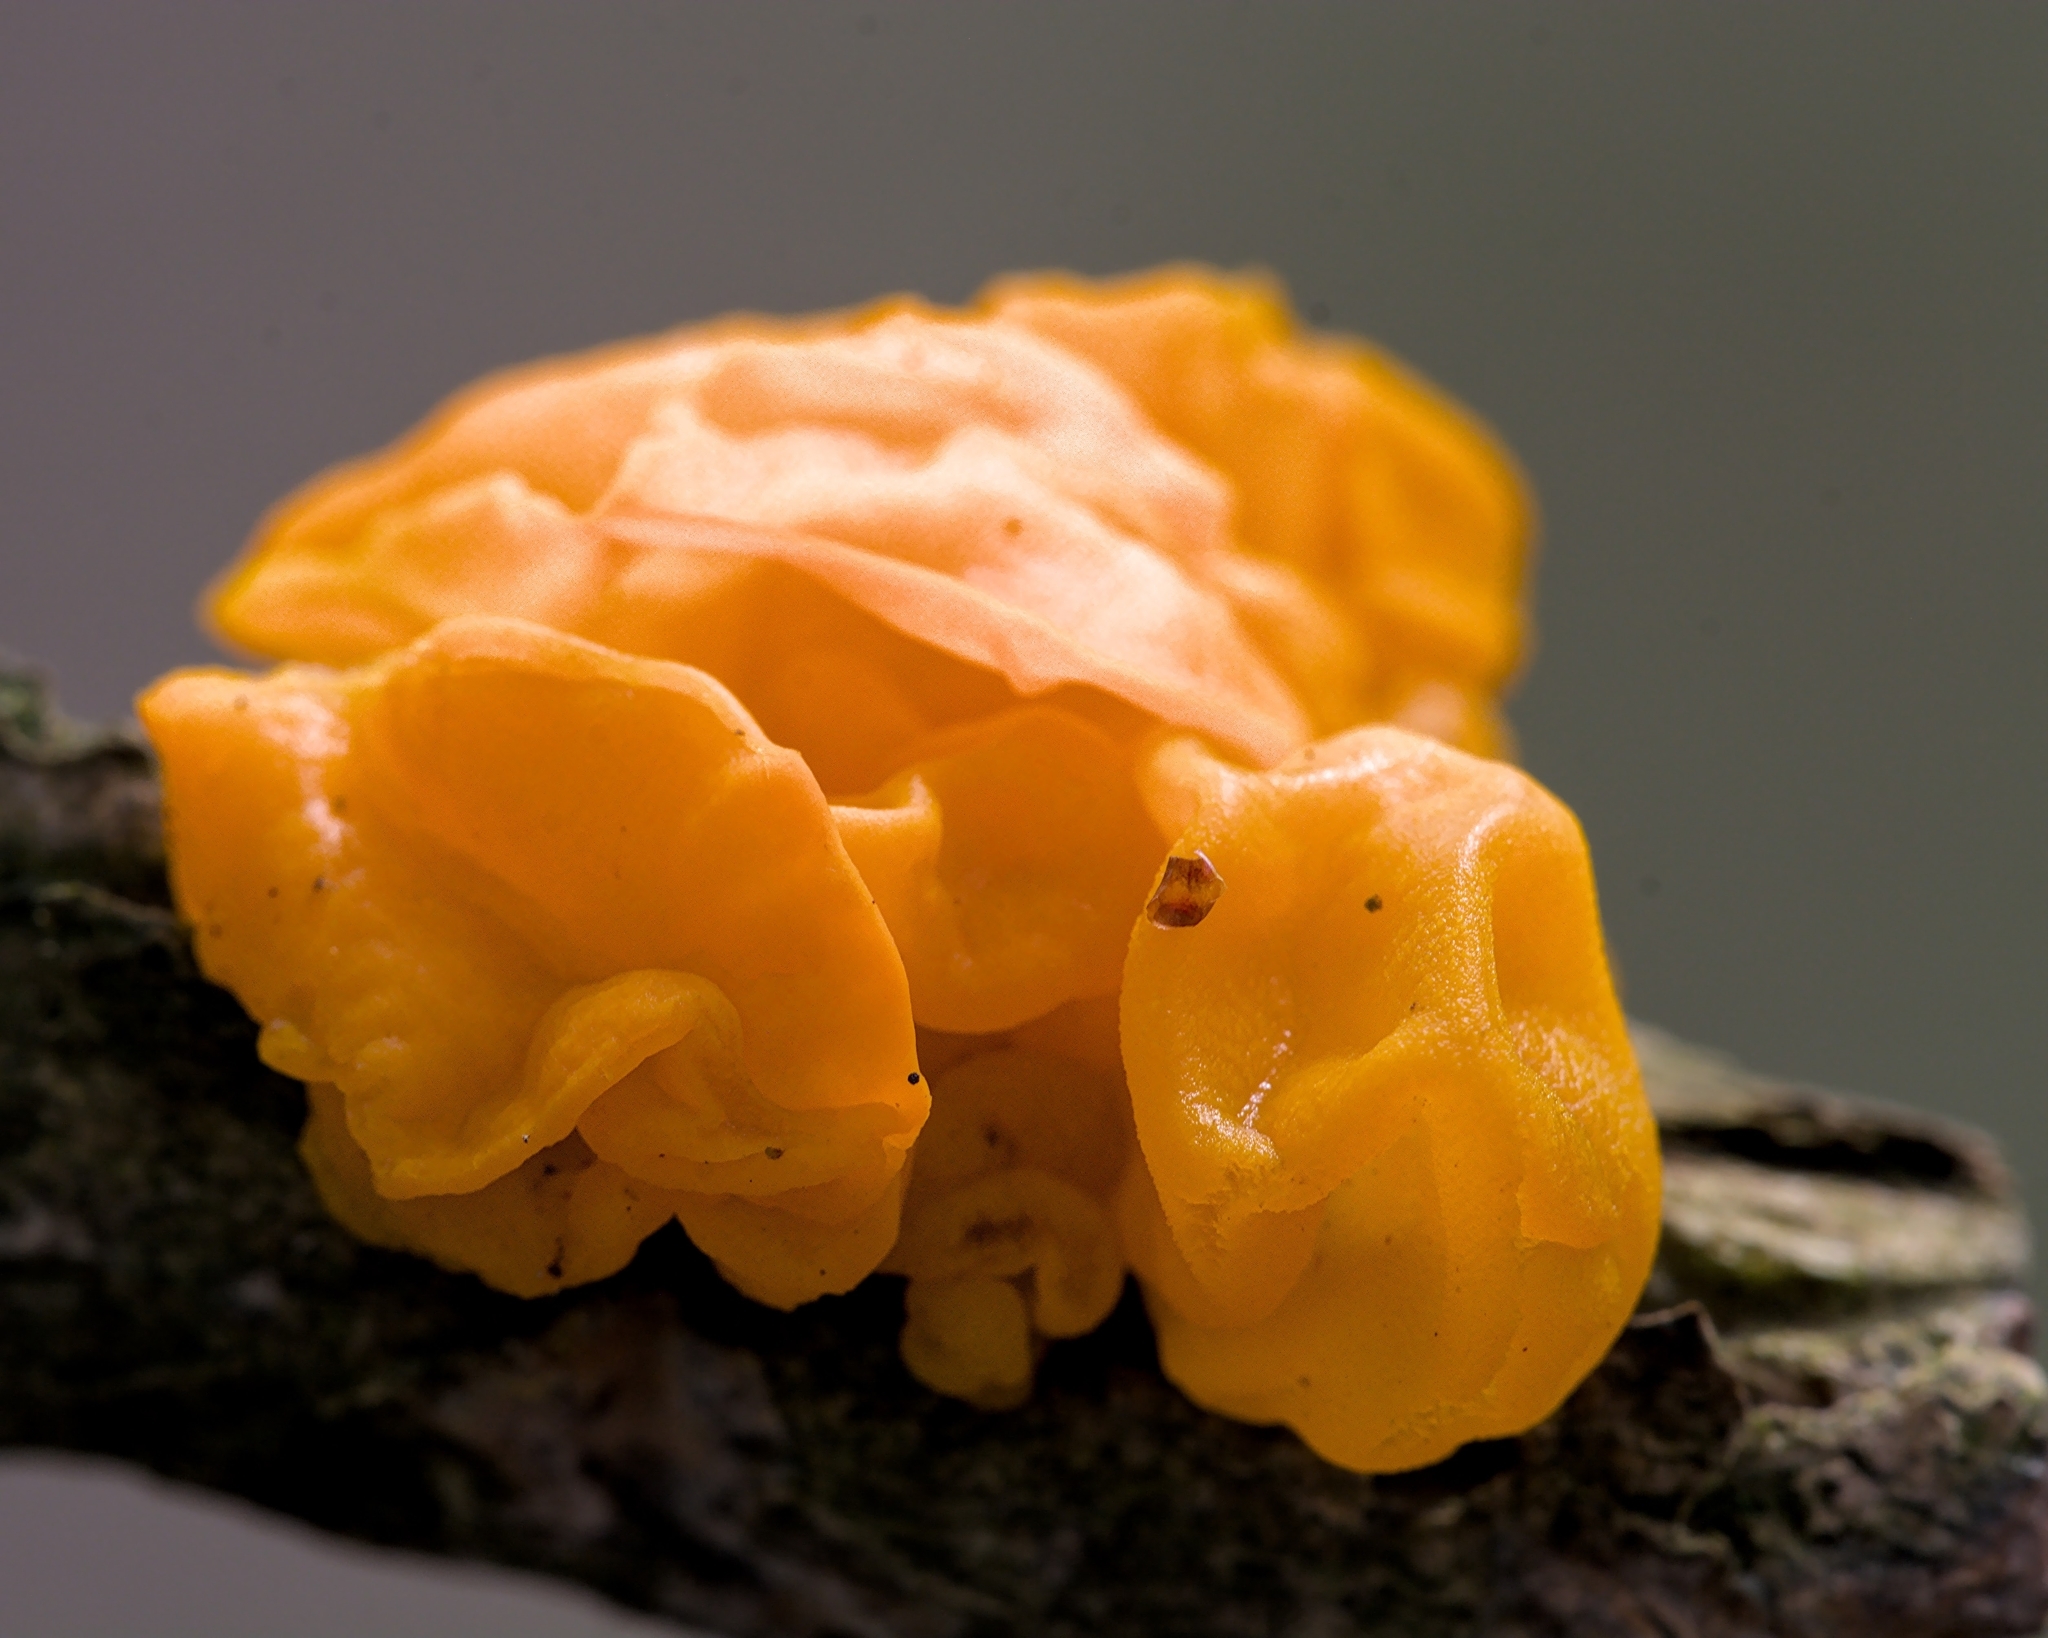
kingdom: Fungi
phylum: Basidiomycota
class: Tremellomycetes
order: Tremellales
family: Tremellaceae
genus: Tremella
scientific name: Tremella mesenterica
